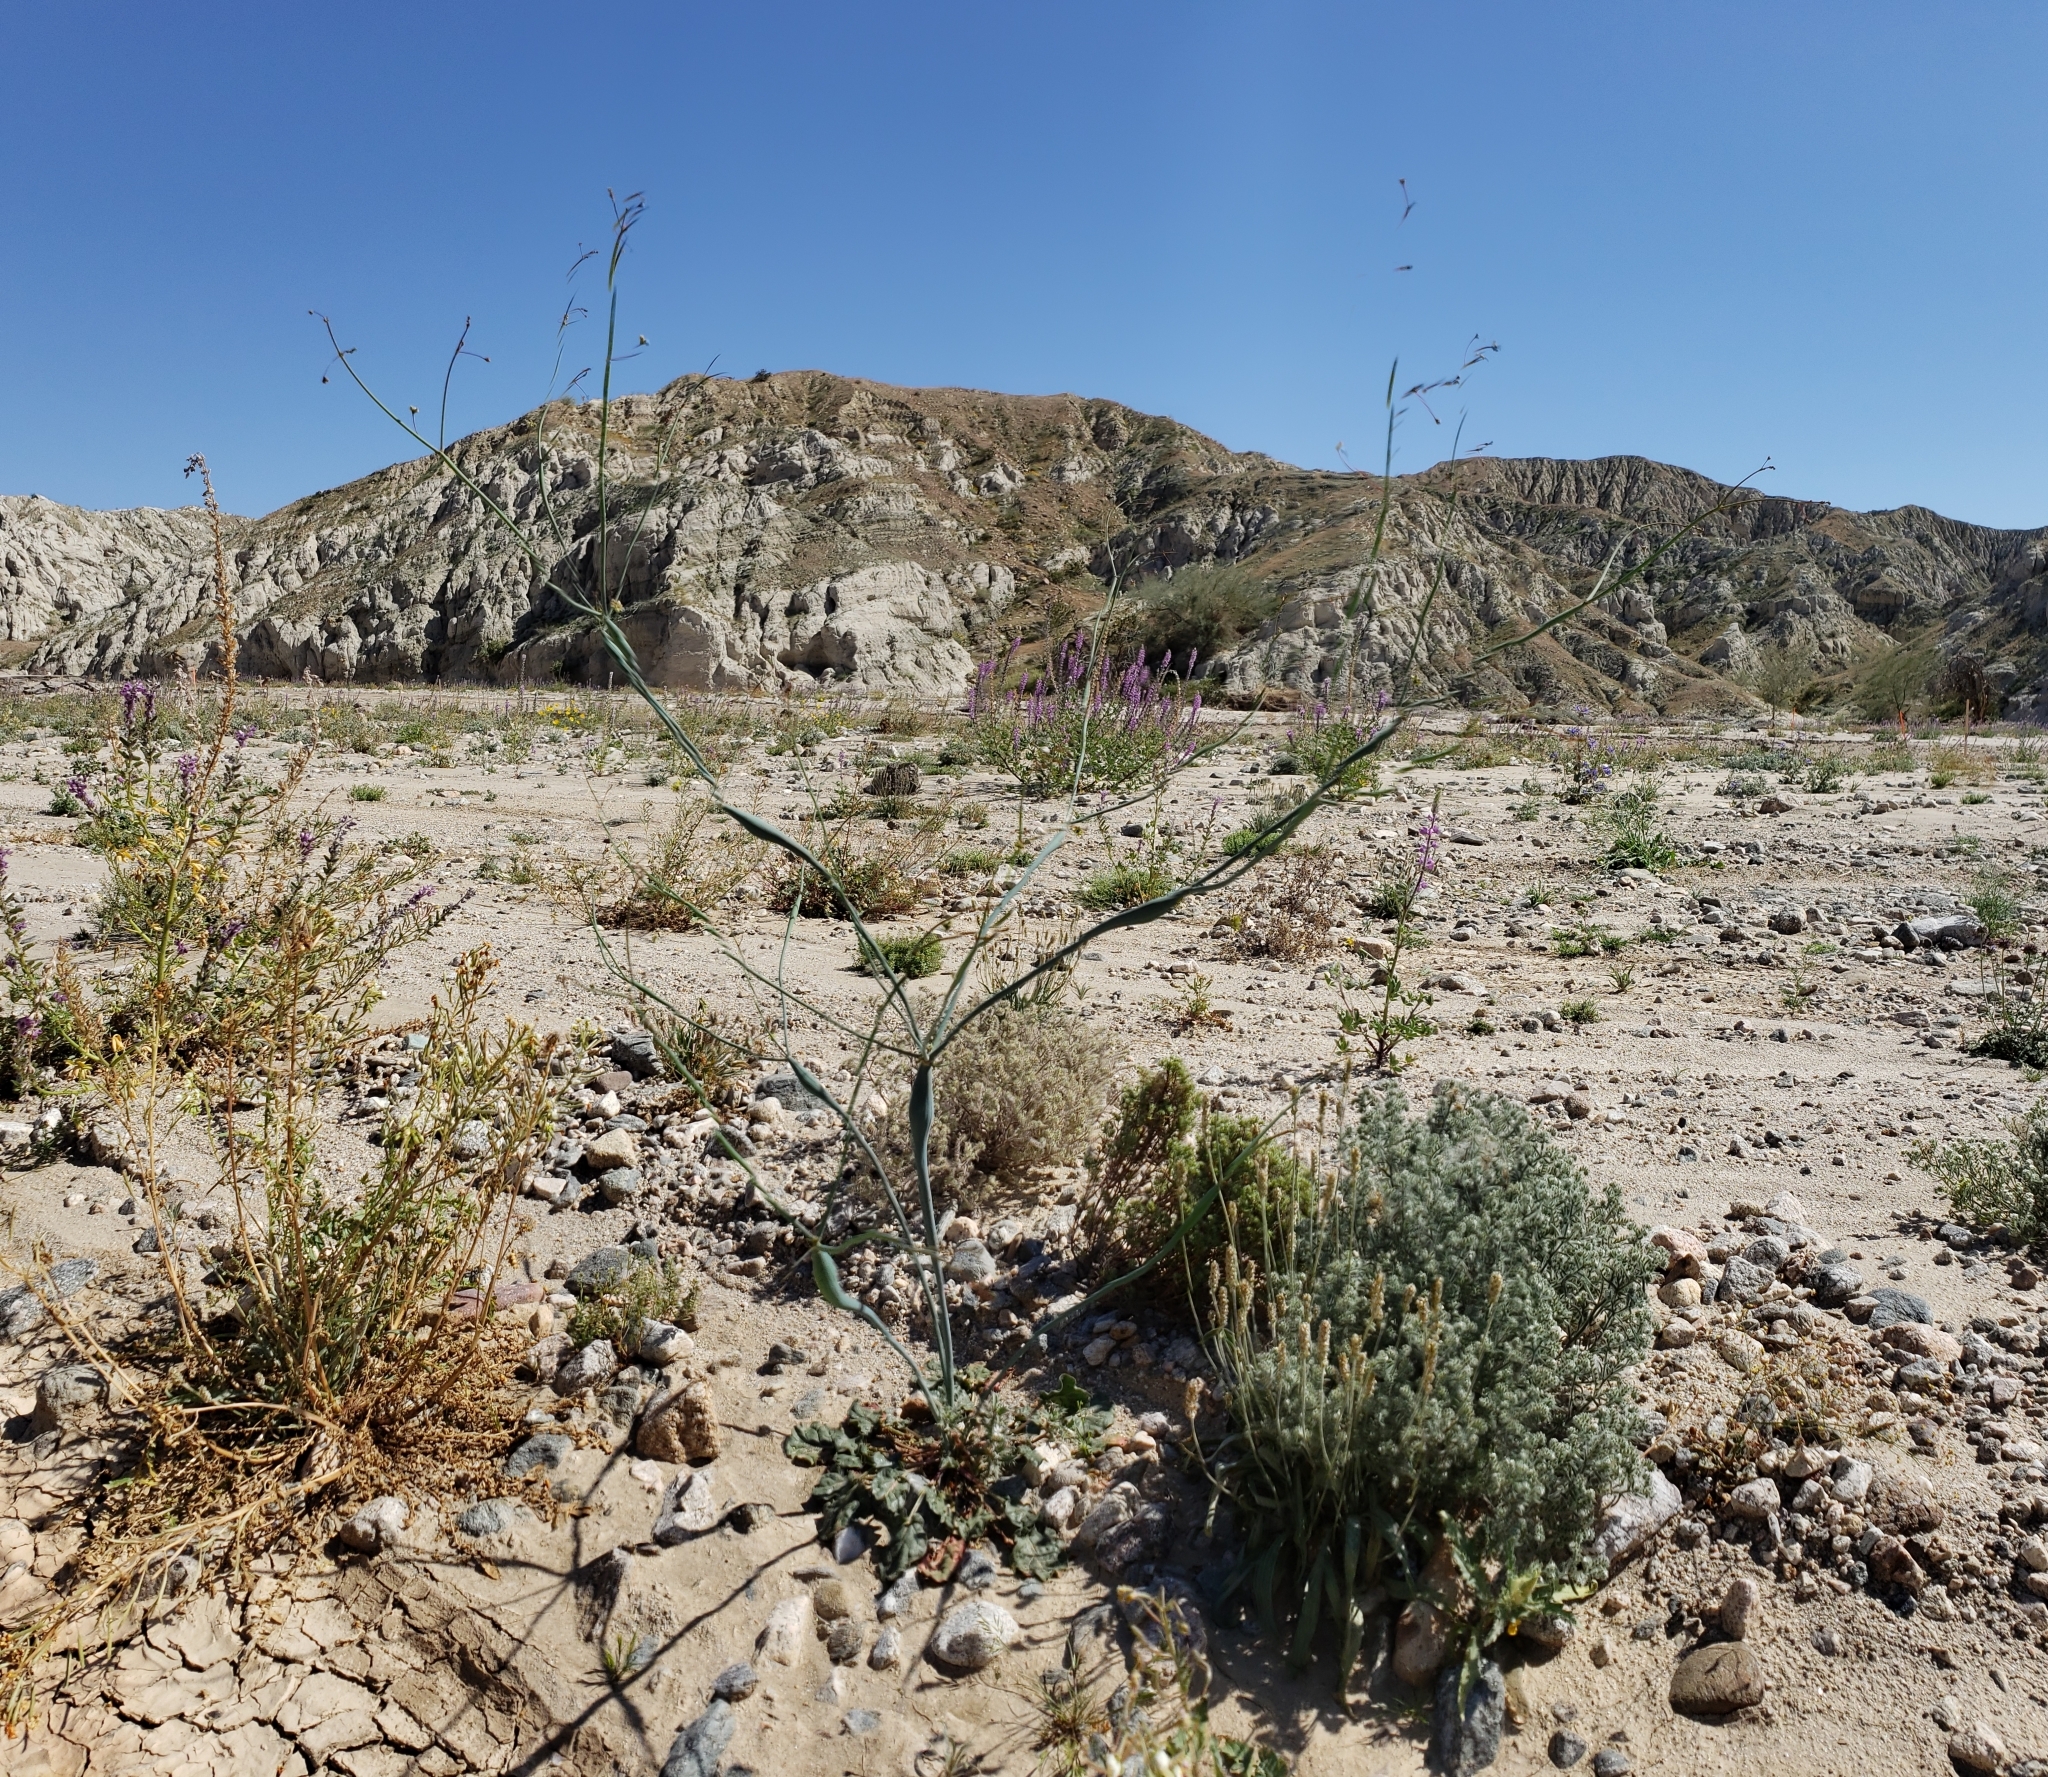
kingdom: Plantae
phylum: Tracheophyta
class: Magnoliopsida
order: Caryophyllales
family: Polygonaceae
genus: Eriogonum
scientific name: Eriogonum inflatum
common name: Desert trumpet
